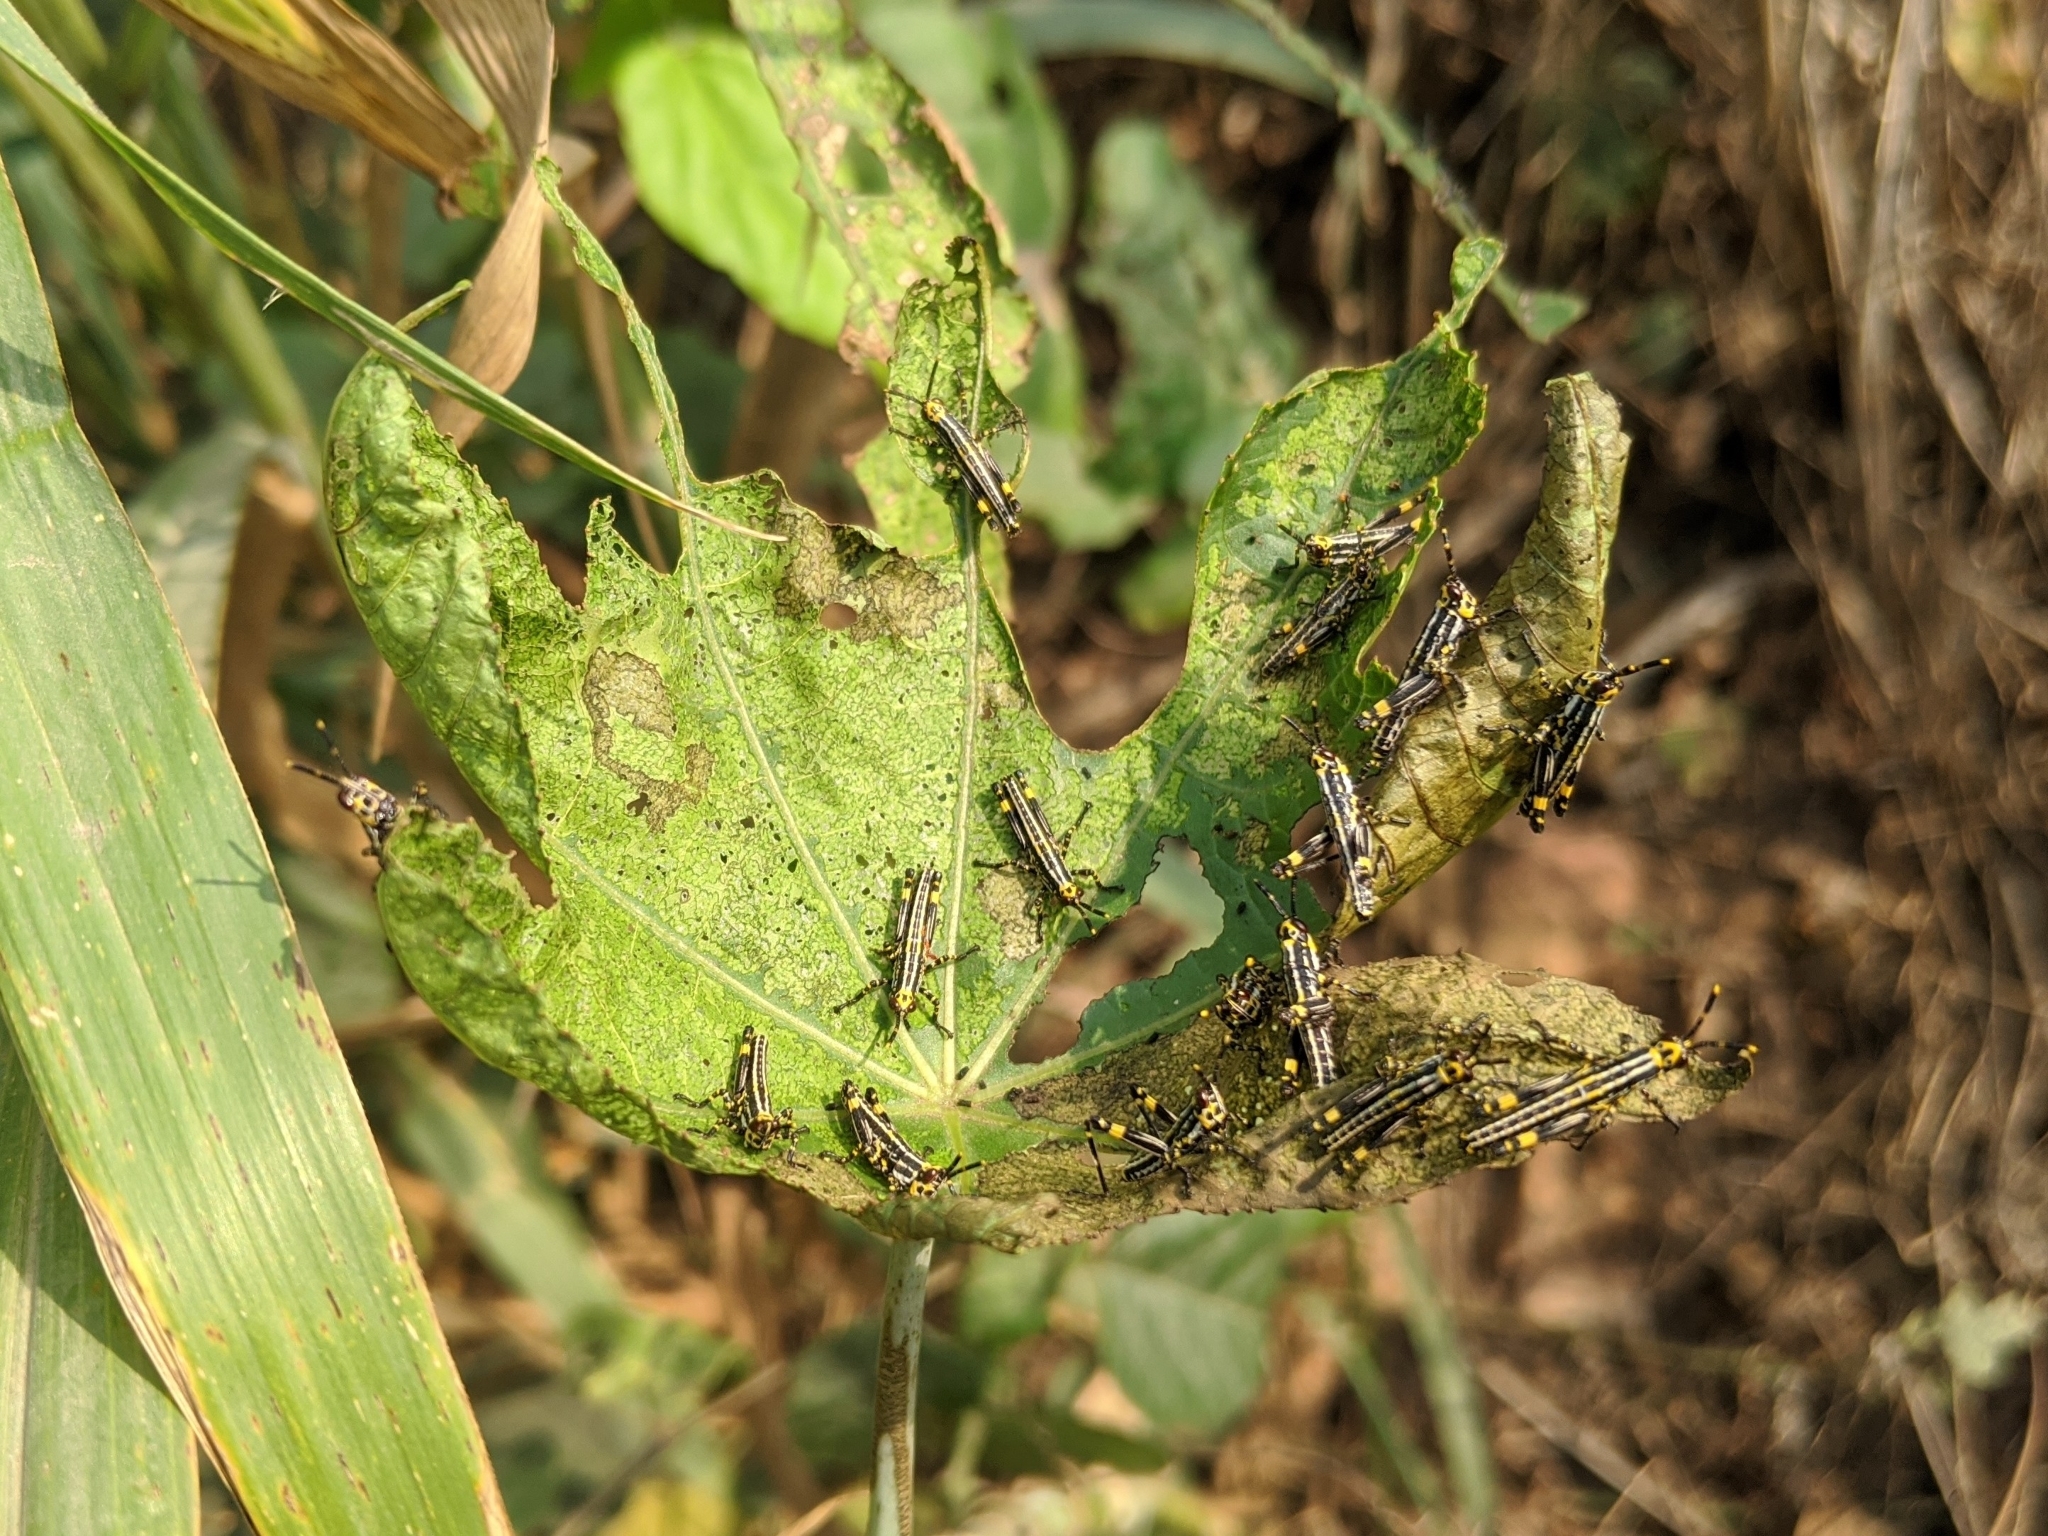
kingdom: Animalia
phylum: Arthropoda
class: Insecta
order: Orthoptera
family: Pyrgomorphidae
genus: Zonocerus
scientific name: Zonocerus variegatus
